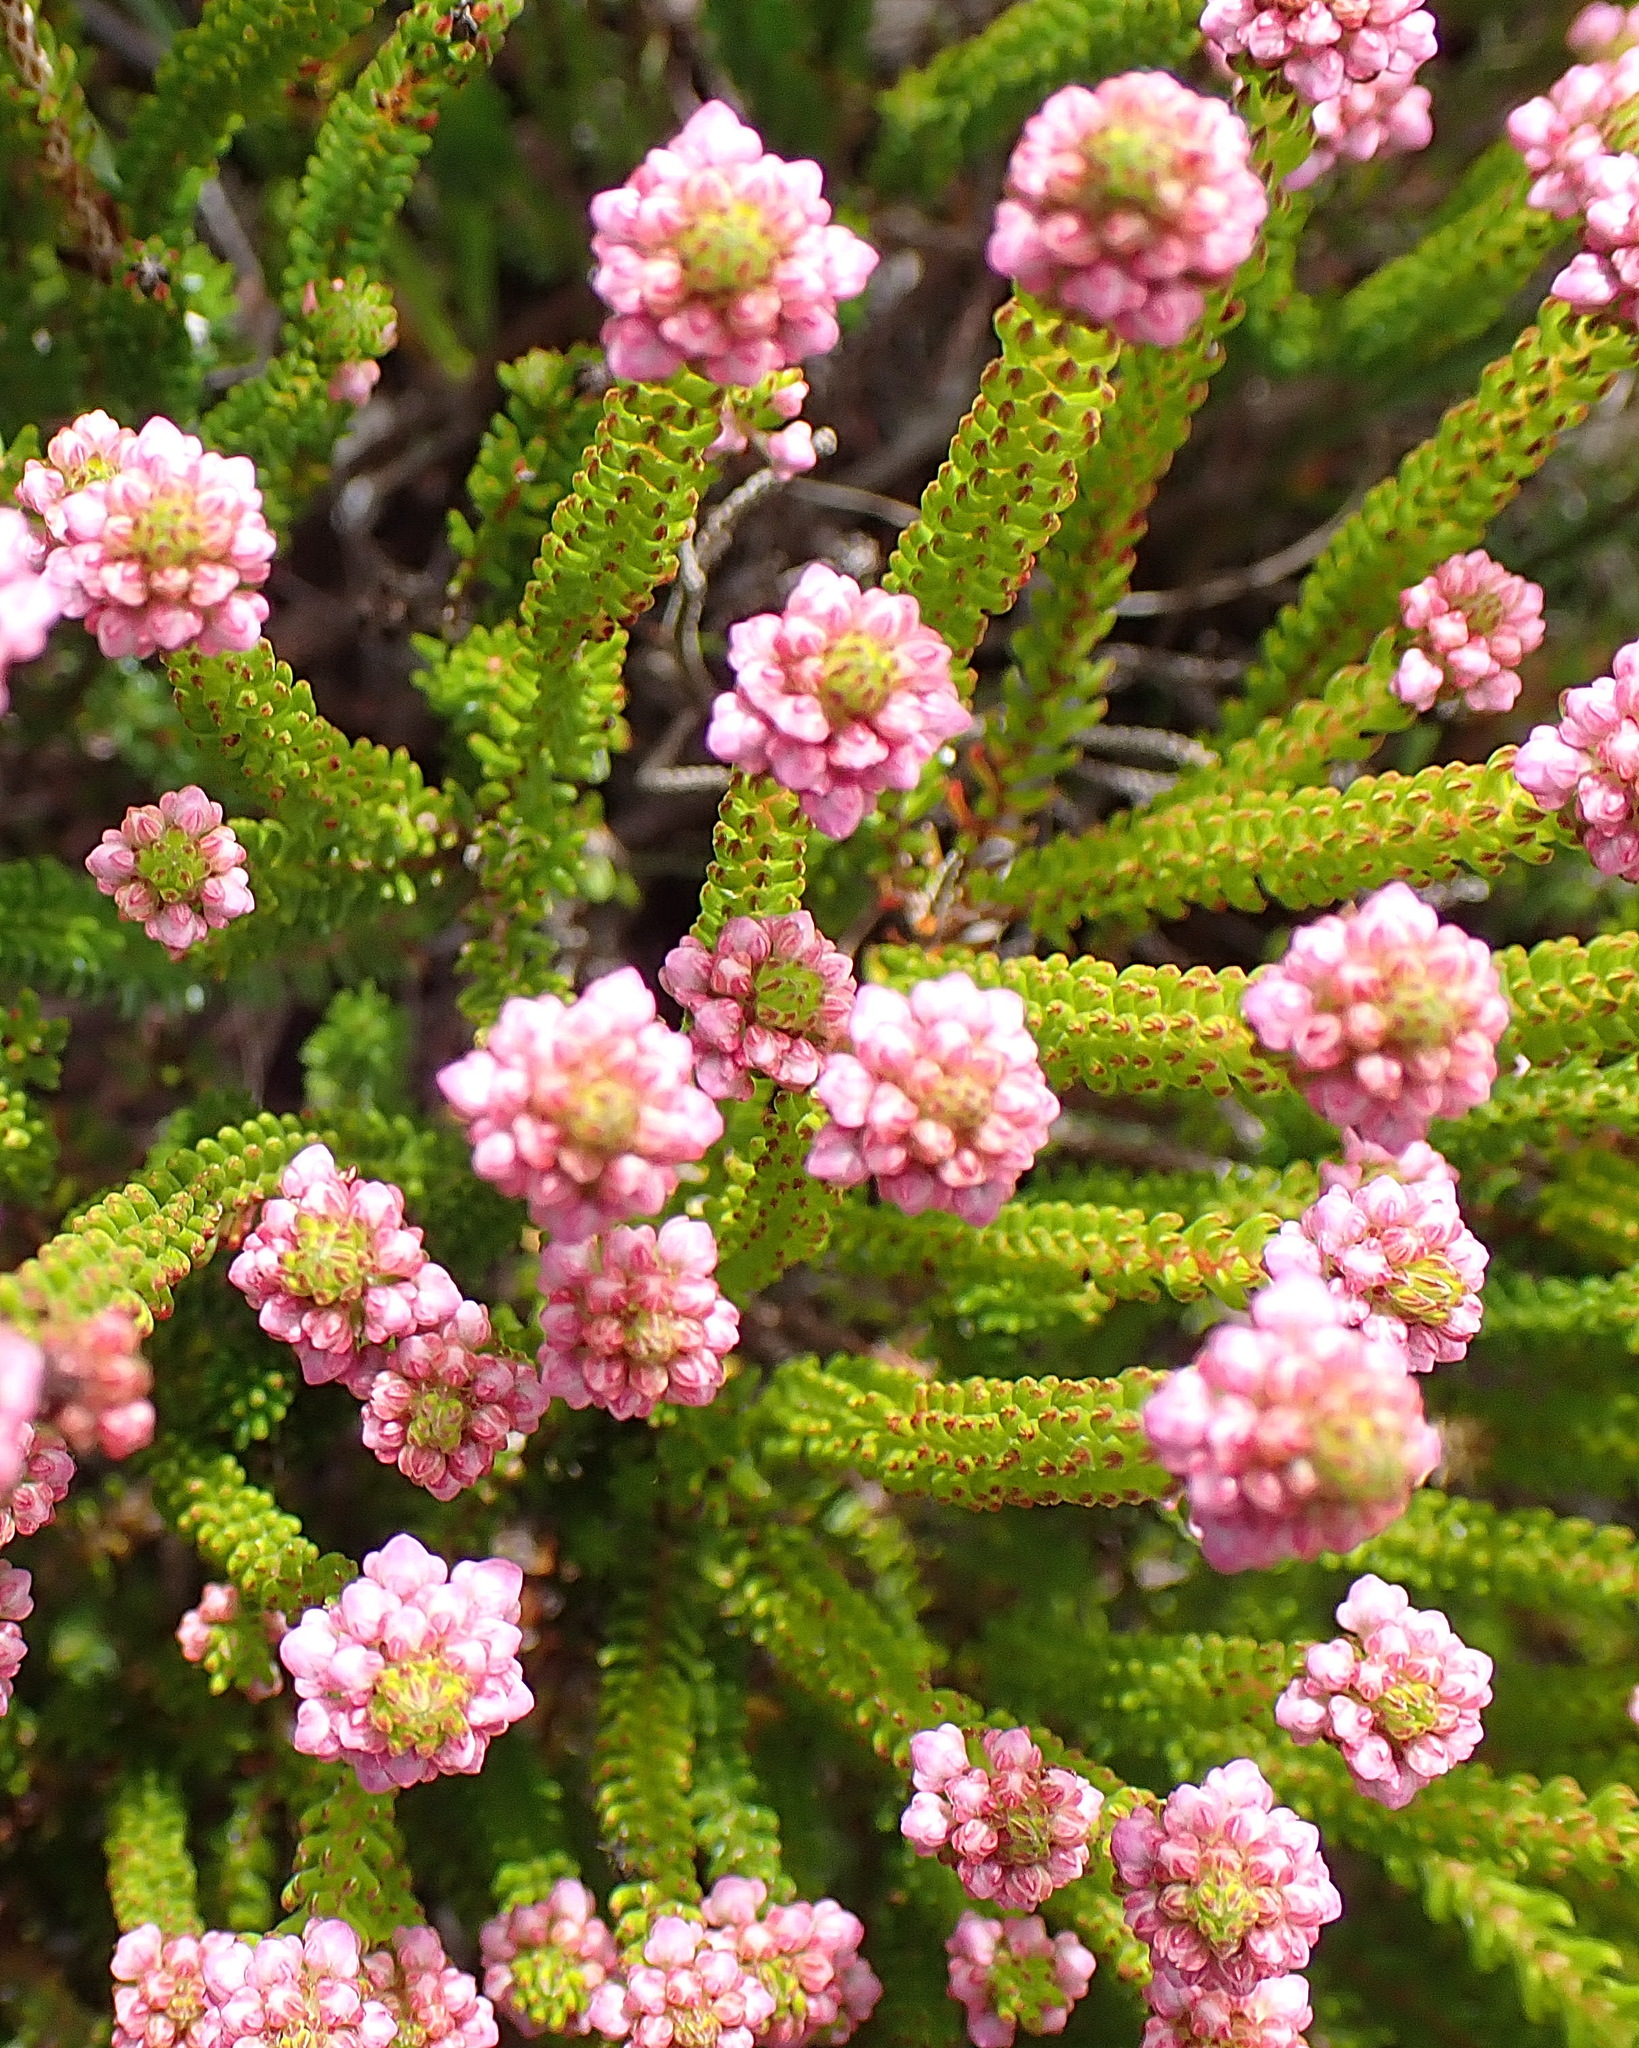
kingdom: Plantae
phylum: Tracheophyta
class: Magnoliopsida
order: Ericales
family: Ericaceae
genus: Erica
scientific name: Erica seriphiifolia
